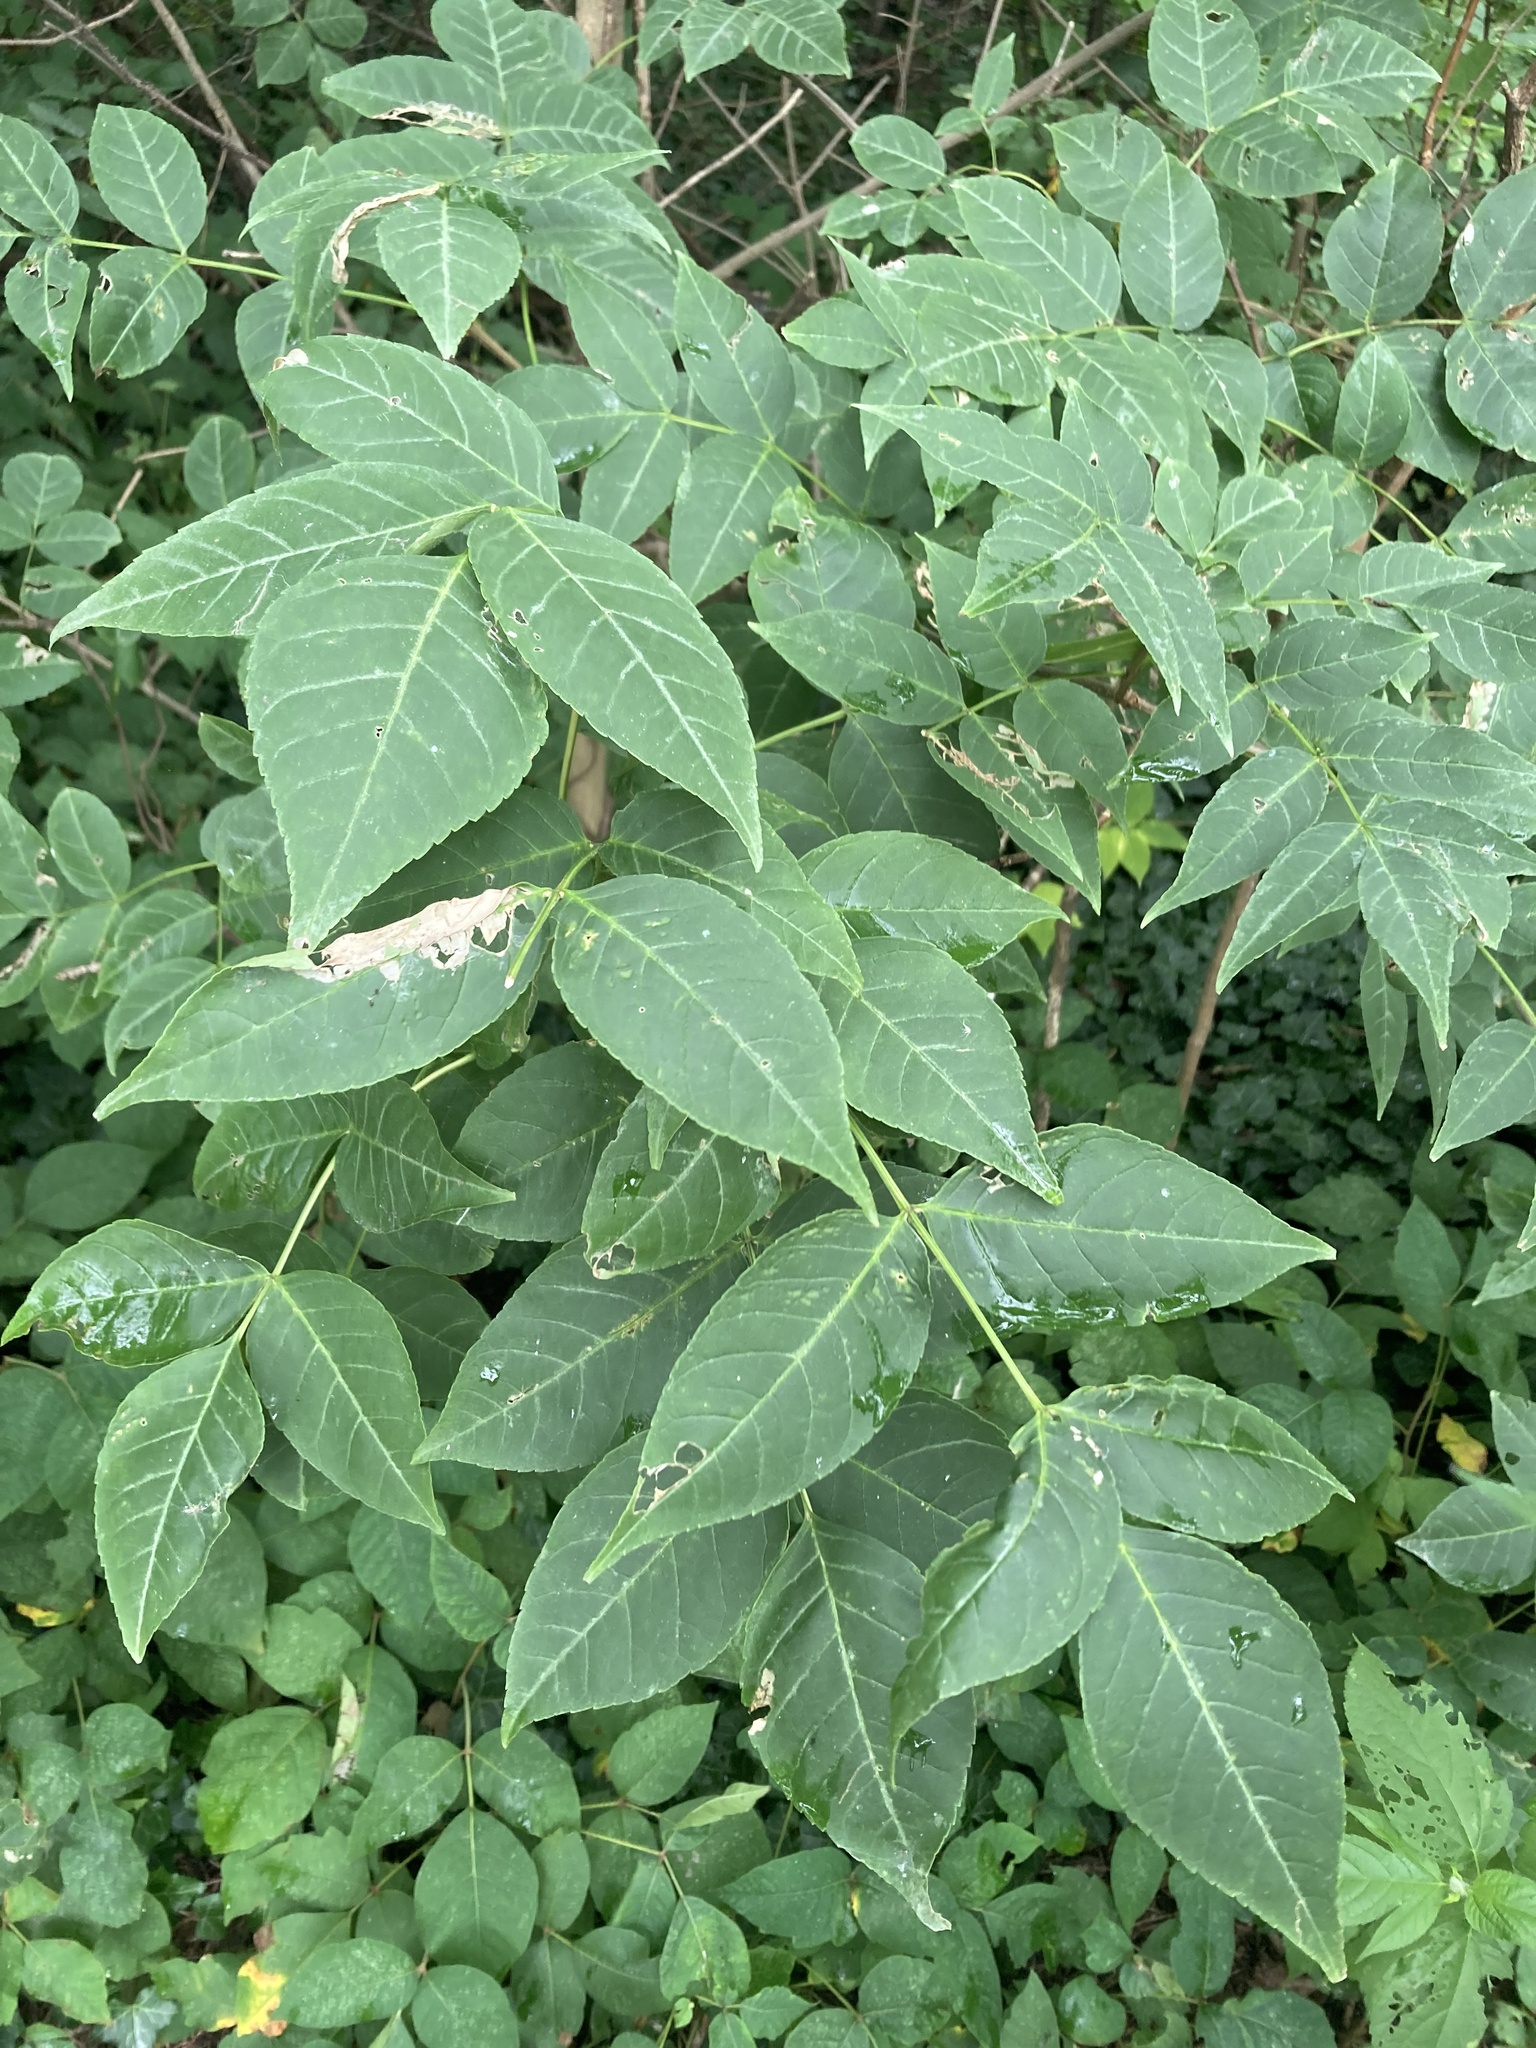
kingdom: Plantae
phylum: Tracheophyta
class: Magnoliopsida
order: Lamiales
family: Oleaceae
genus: Fraxinus
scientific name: Fraxinus quadrangulata
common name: Blue ash
